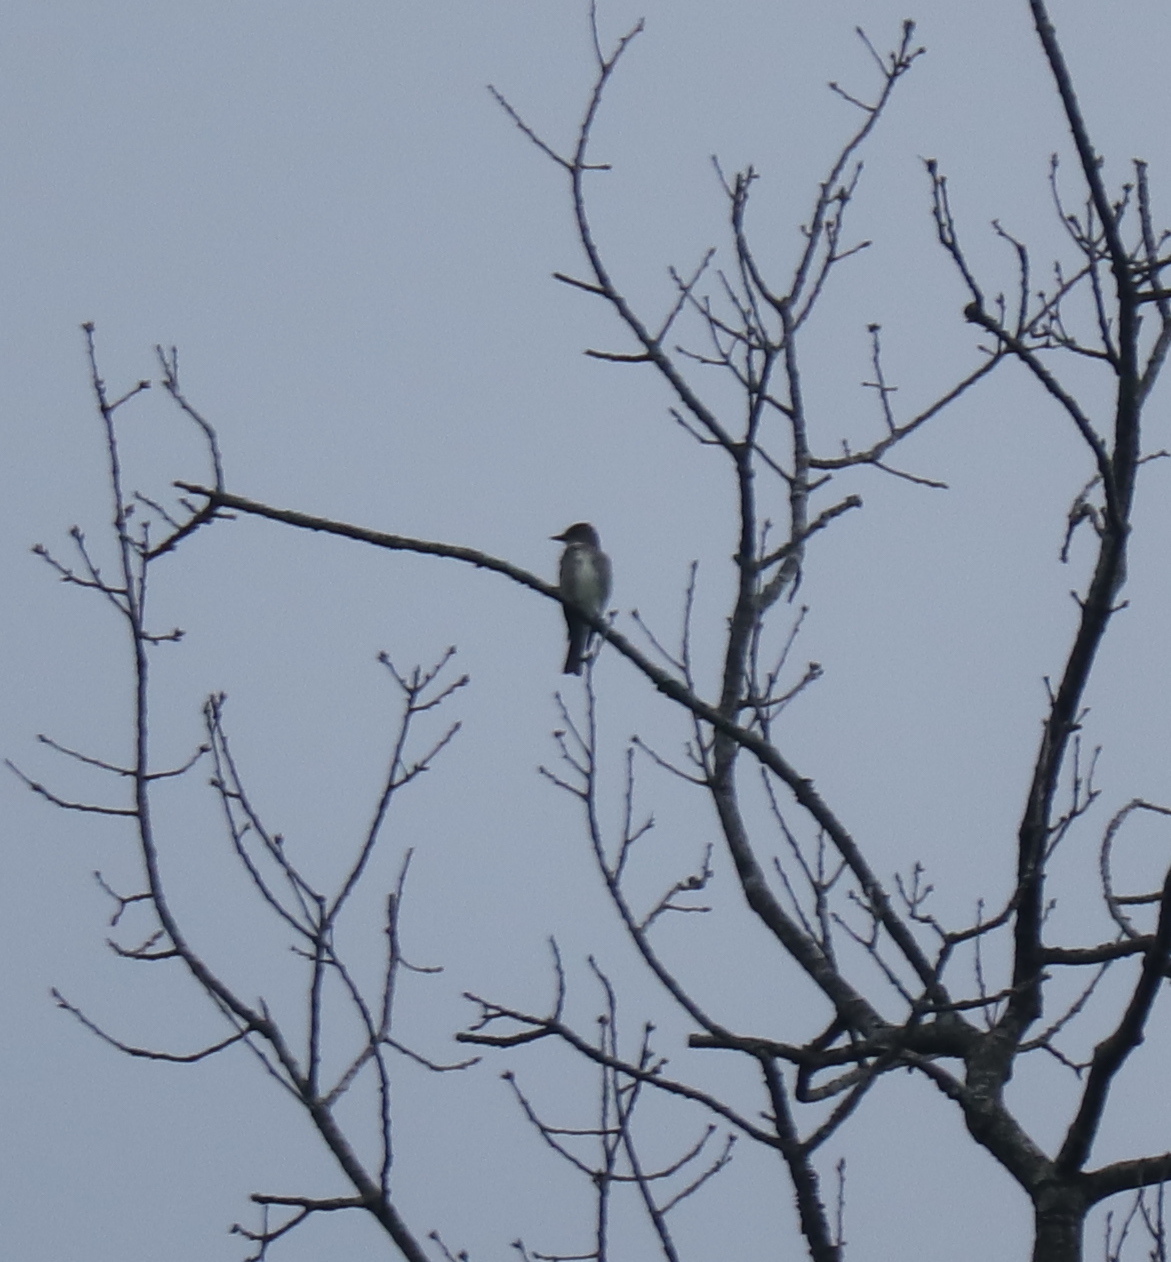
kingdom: Animalia
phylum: Chordata
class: Aves
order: Passeriformes
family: Tyrannidae
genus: Contopus
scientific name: Contopus cooperi
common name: Olive-sided flycatcher
